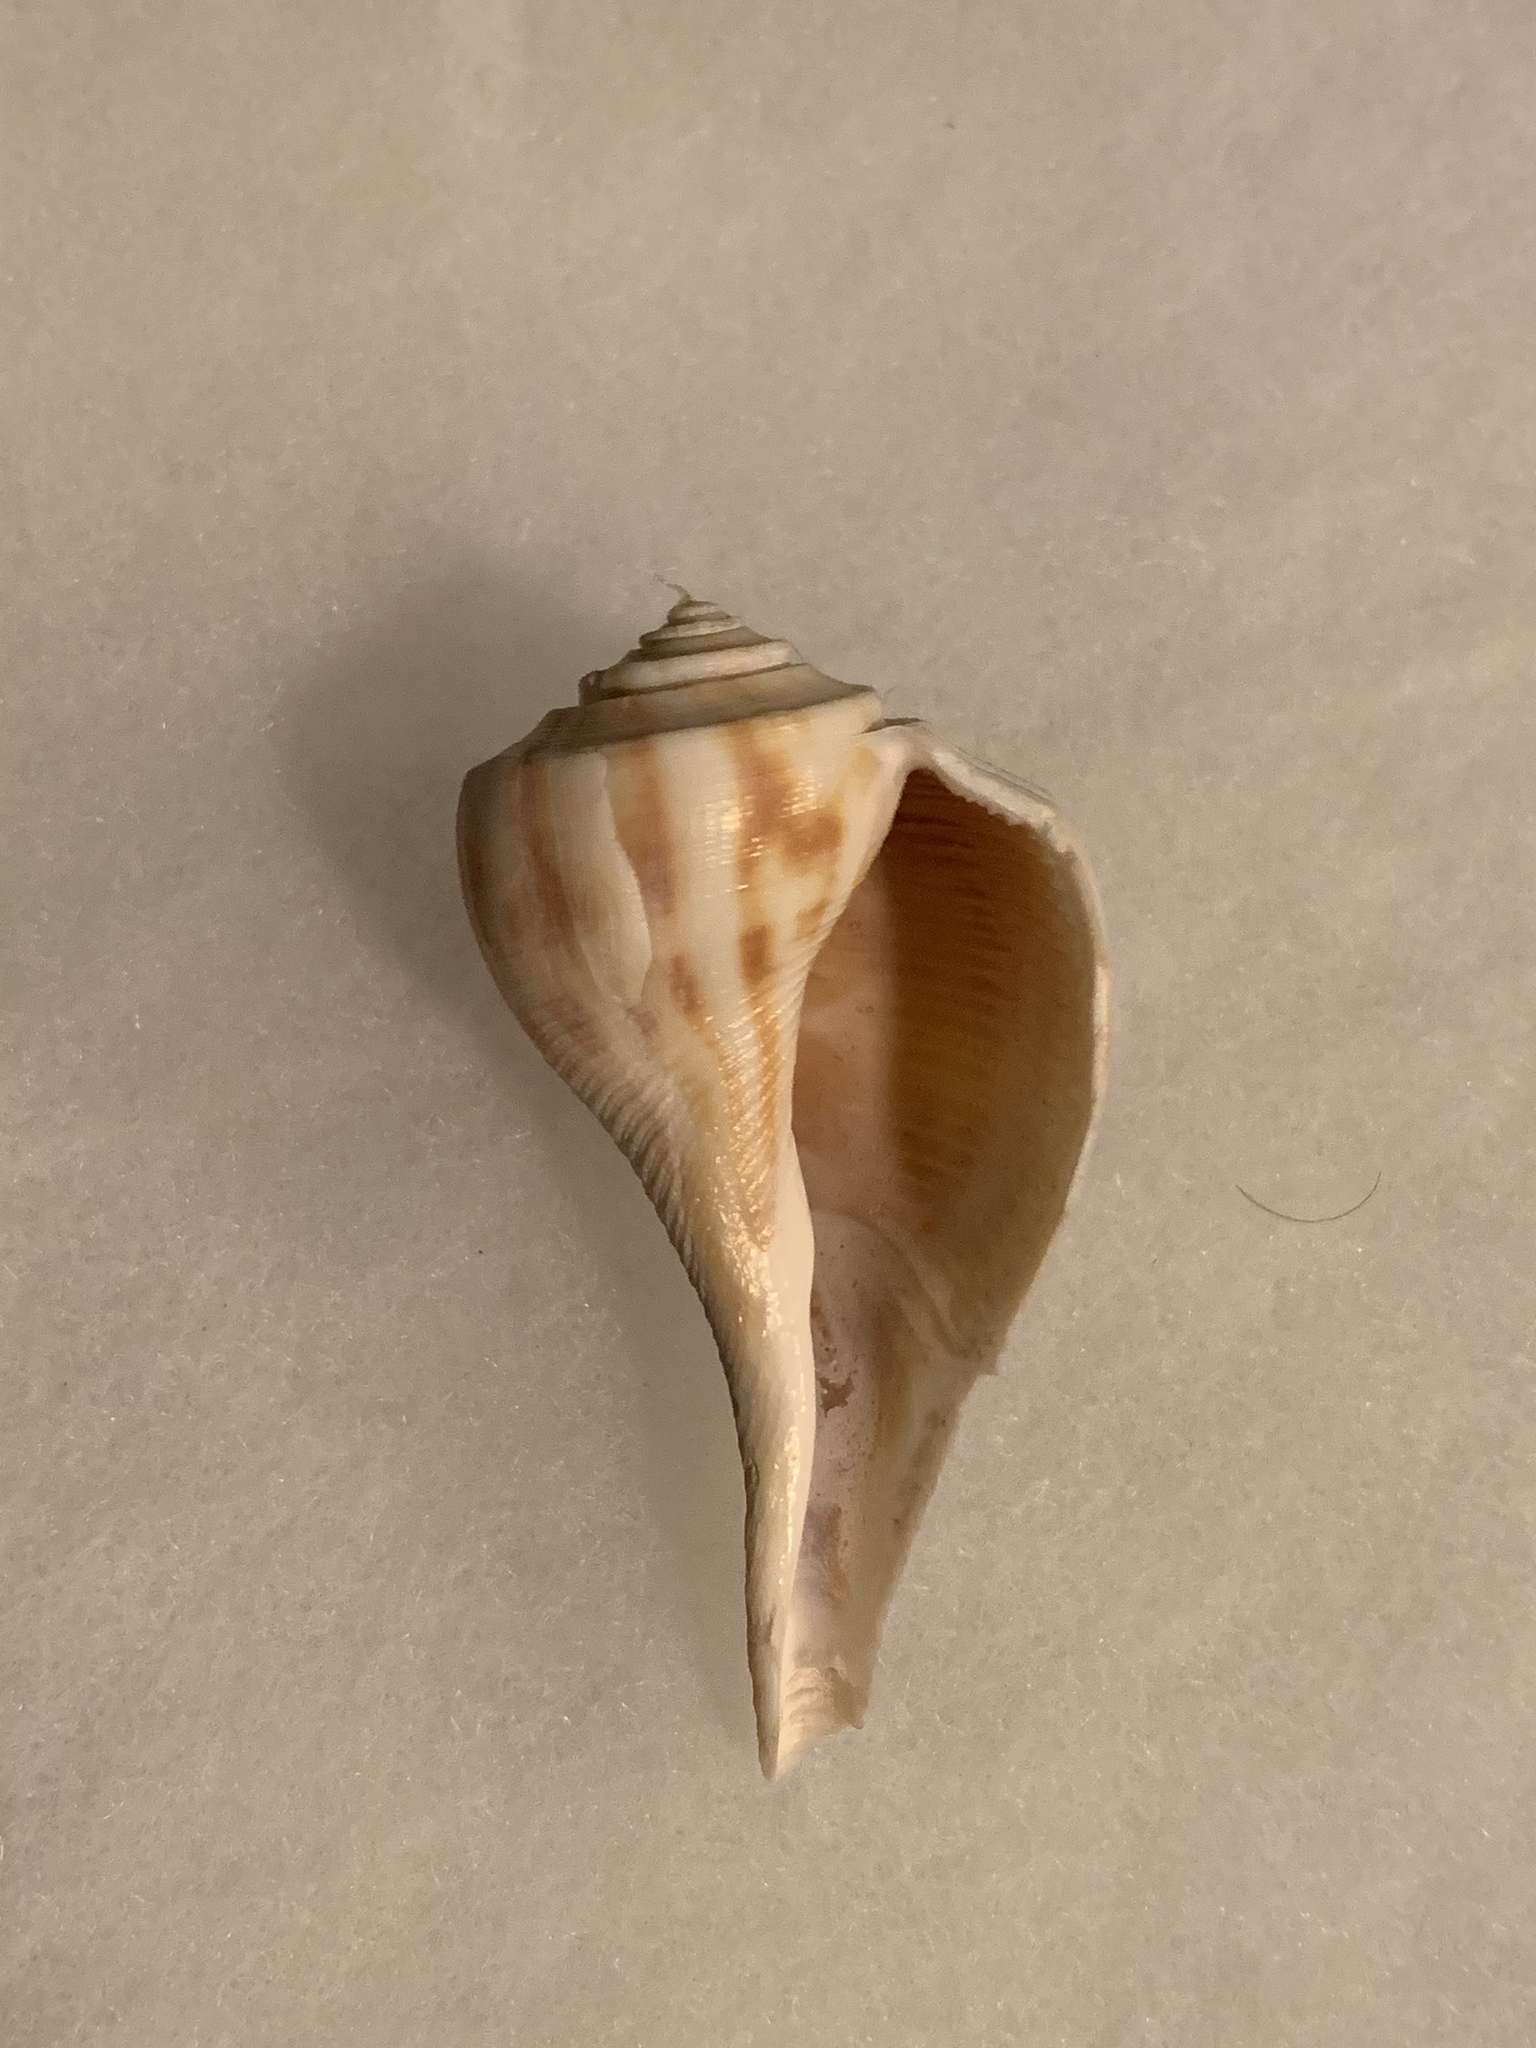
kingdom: Animalia
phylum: Mollusca
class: Gastropoda
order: Neogastropoda
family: Busyconidae
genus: Fulguropsis
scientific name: Fulguropsis pyruloides
